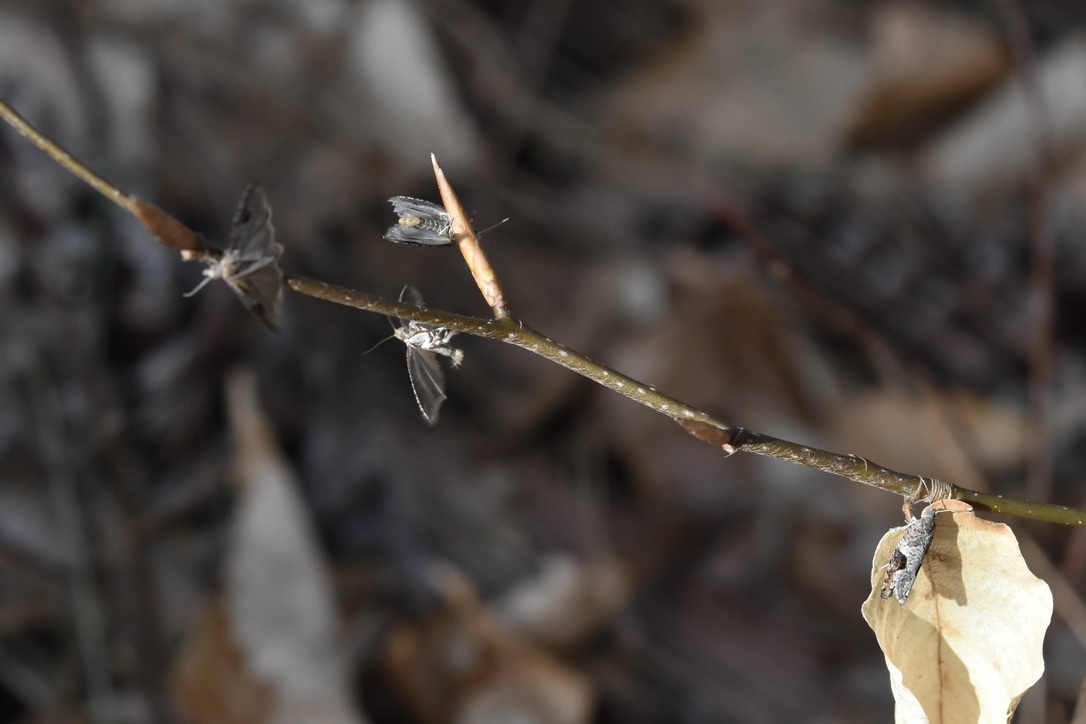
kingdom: Animalia
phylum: Arthropoda
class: Insecta
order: Lepidoptera
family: Tortricidae
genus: Pseudexentera
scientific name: Pseudexentera virginiana
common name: Virginia pseudexentera moth
